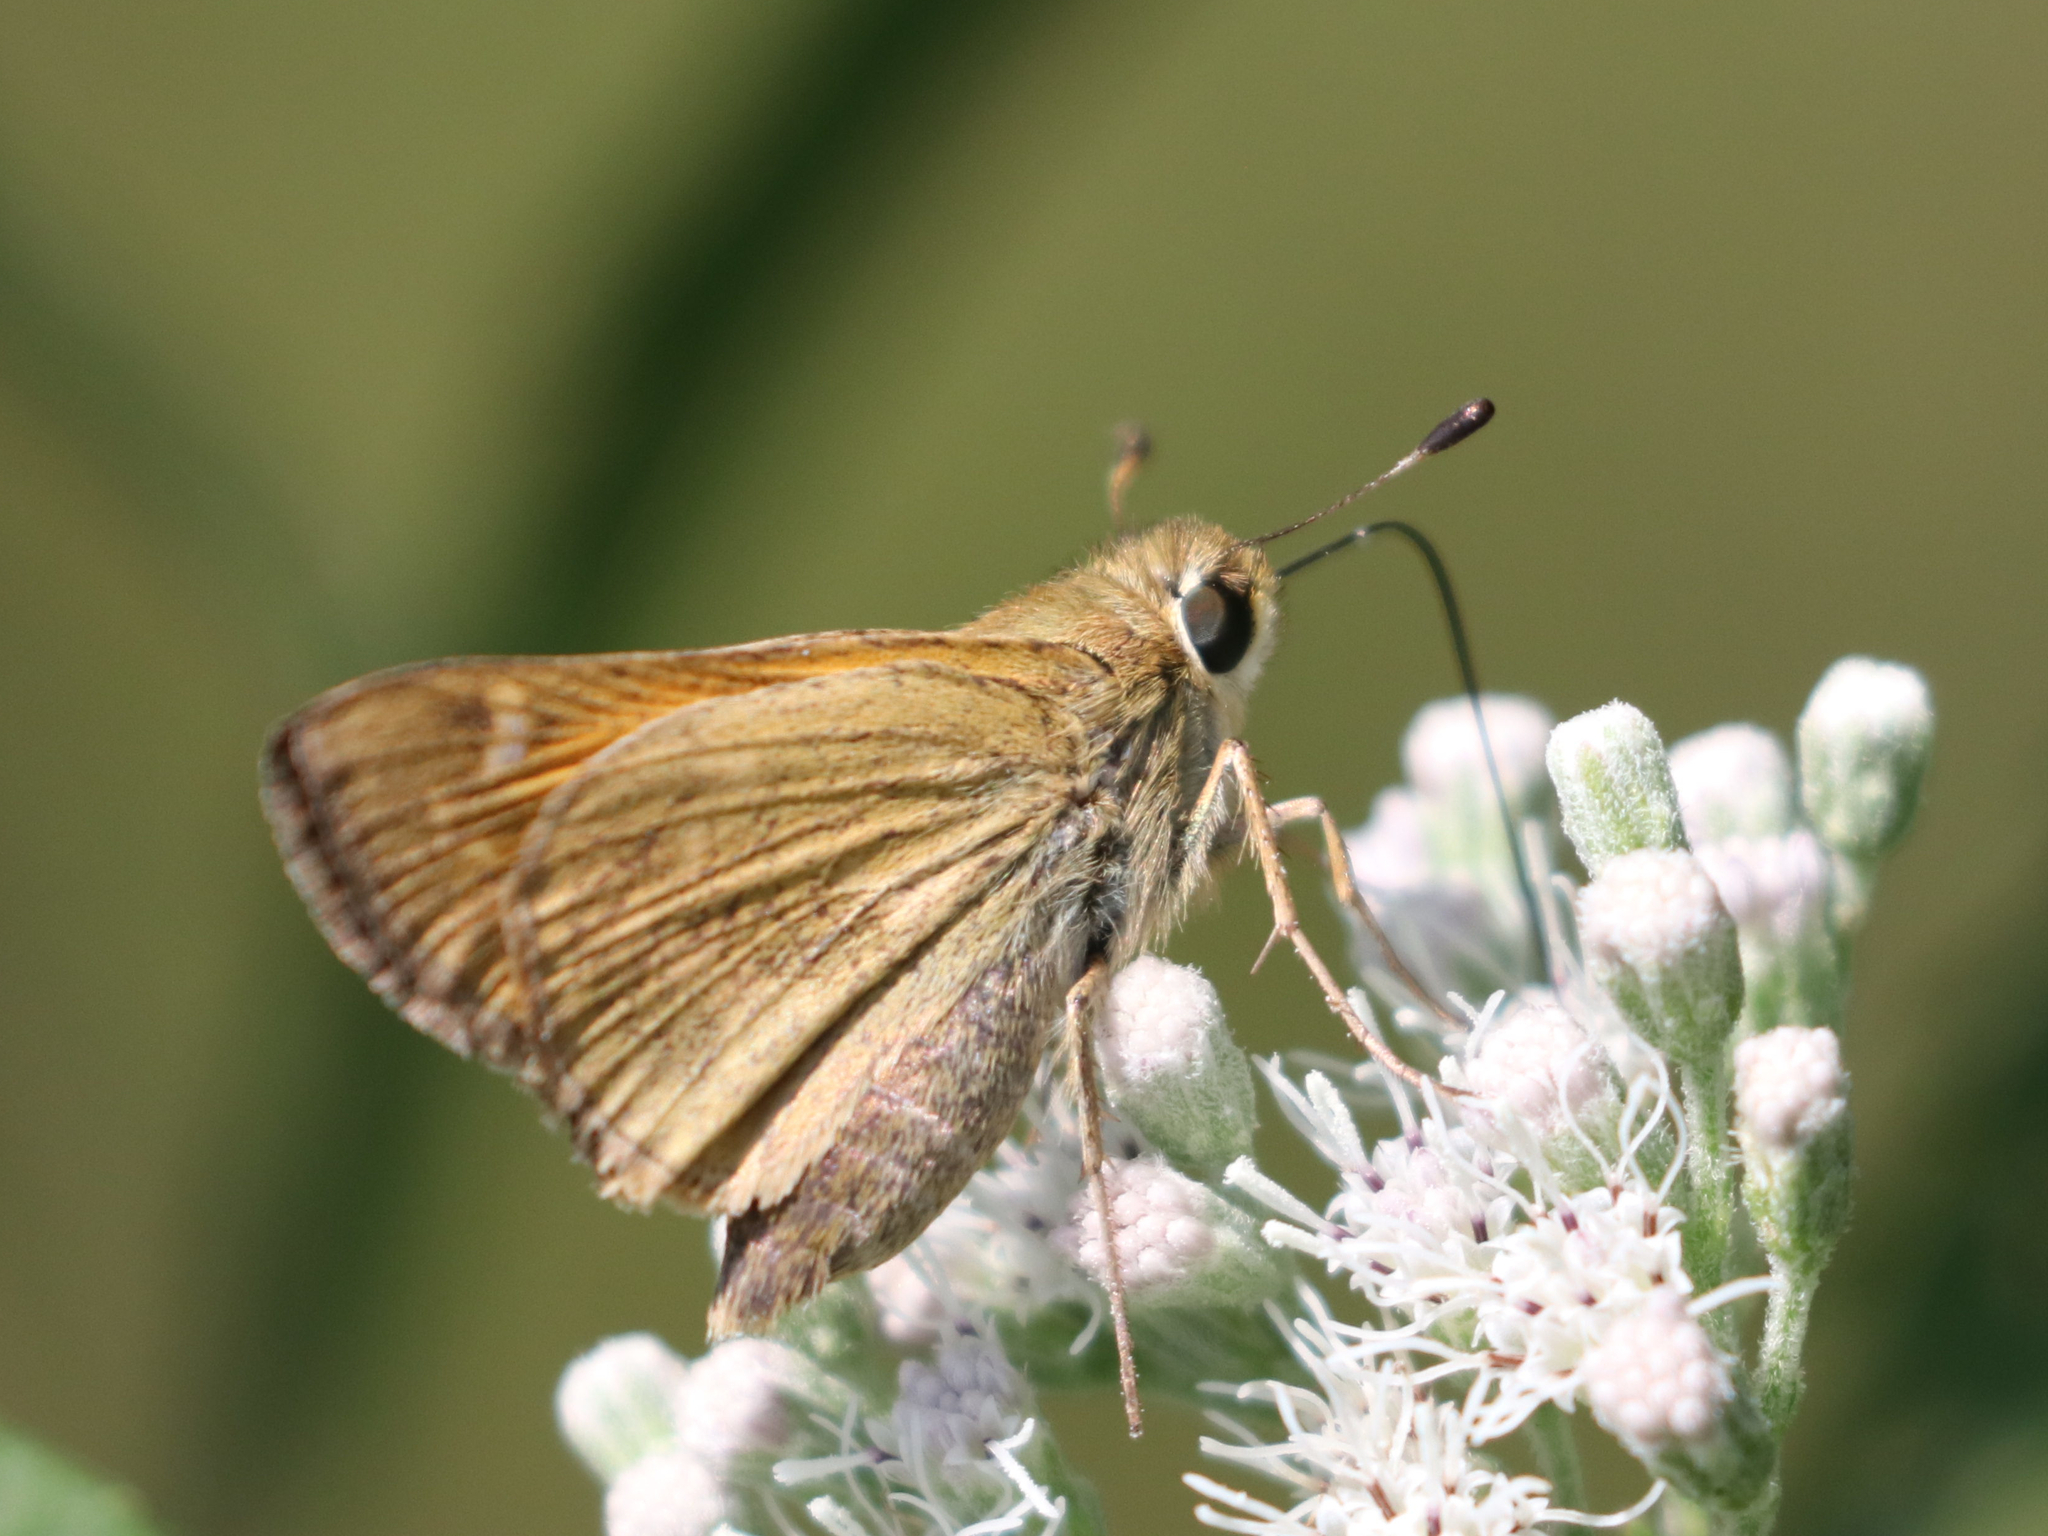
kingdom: Animalia
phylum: Arthropoda
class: Insecta
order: Lepidoptera
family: Hesperiidae
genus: Atalopedes
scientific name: Atalopedes
